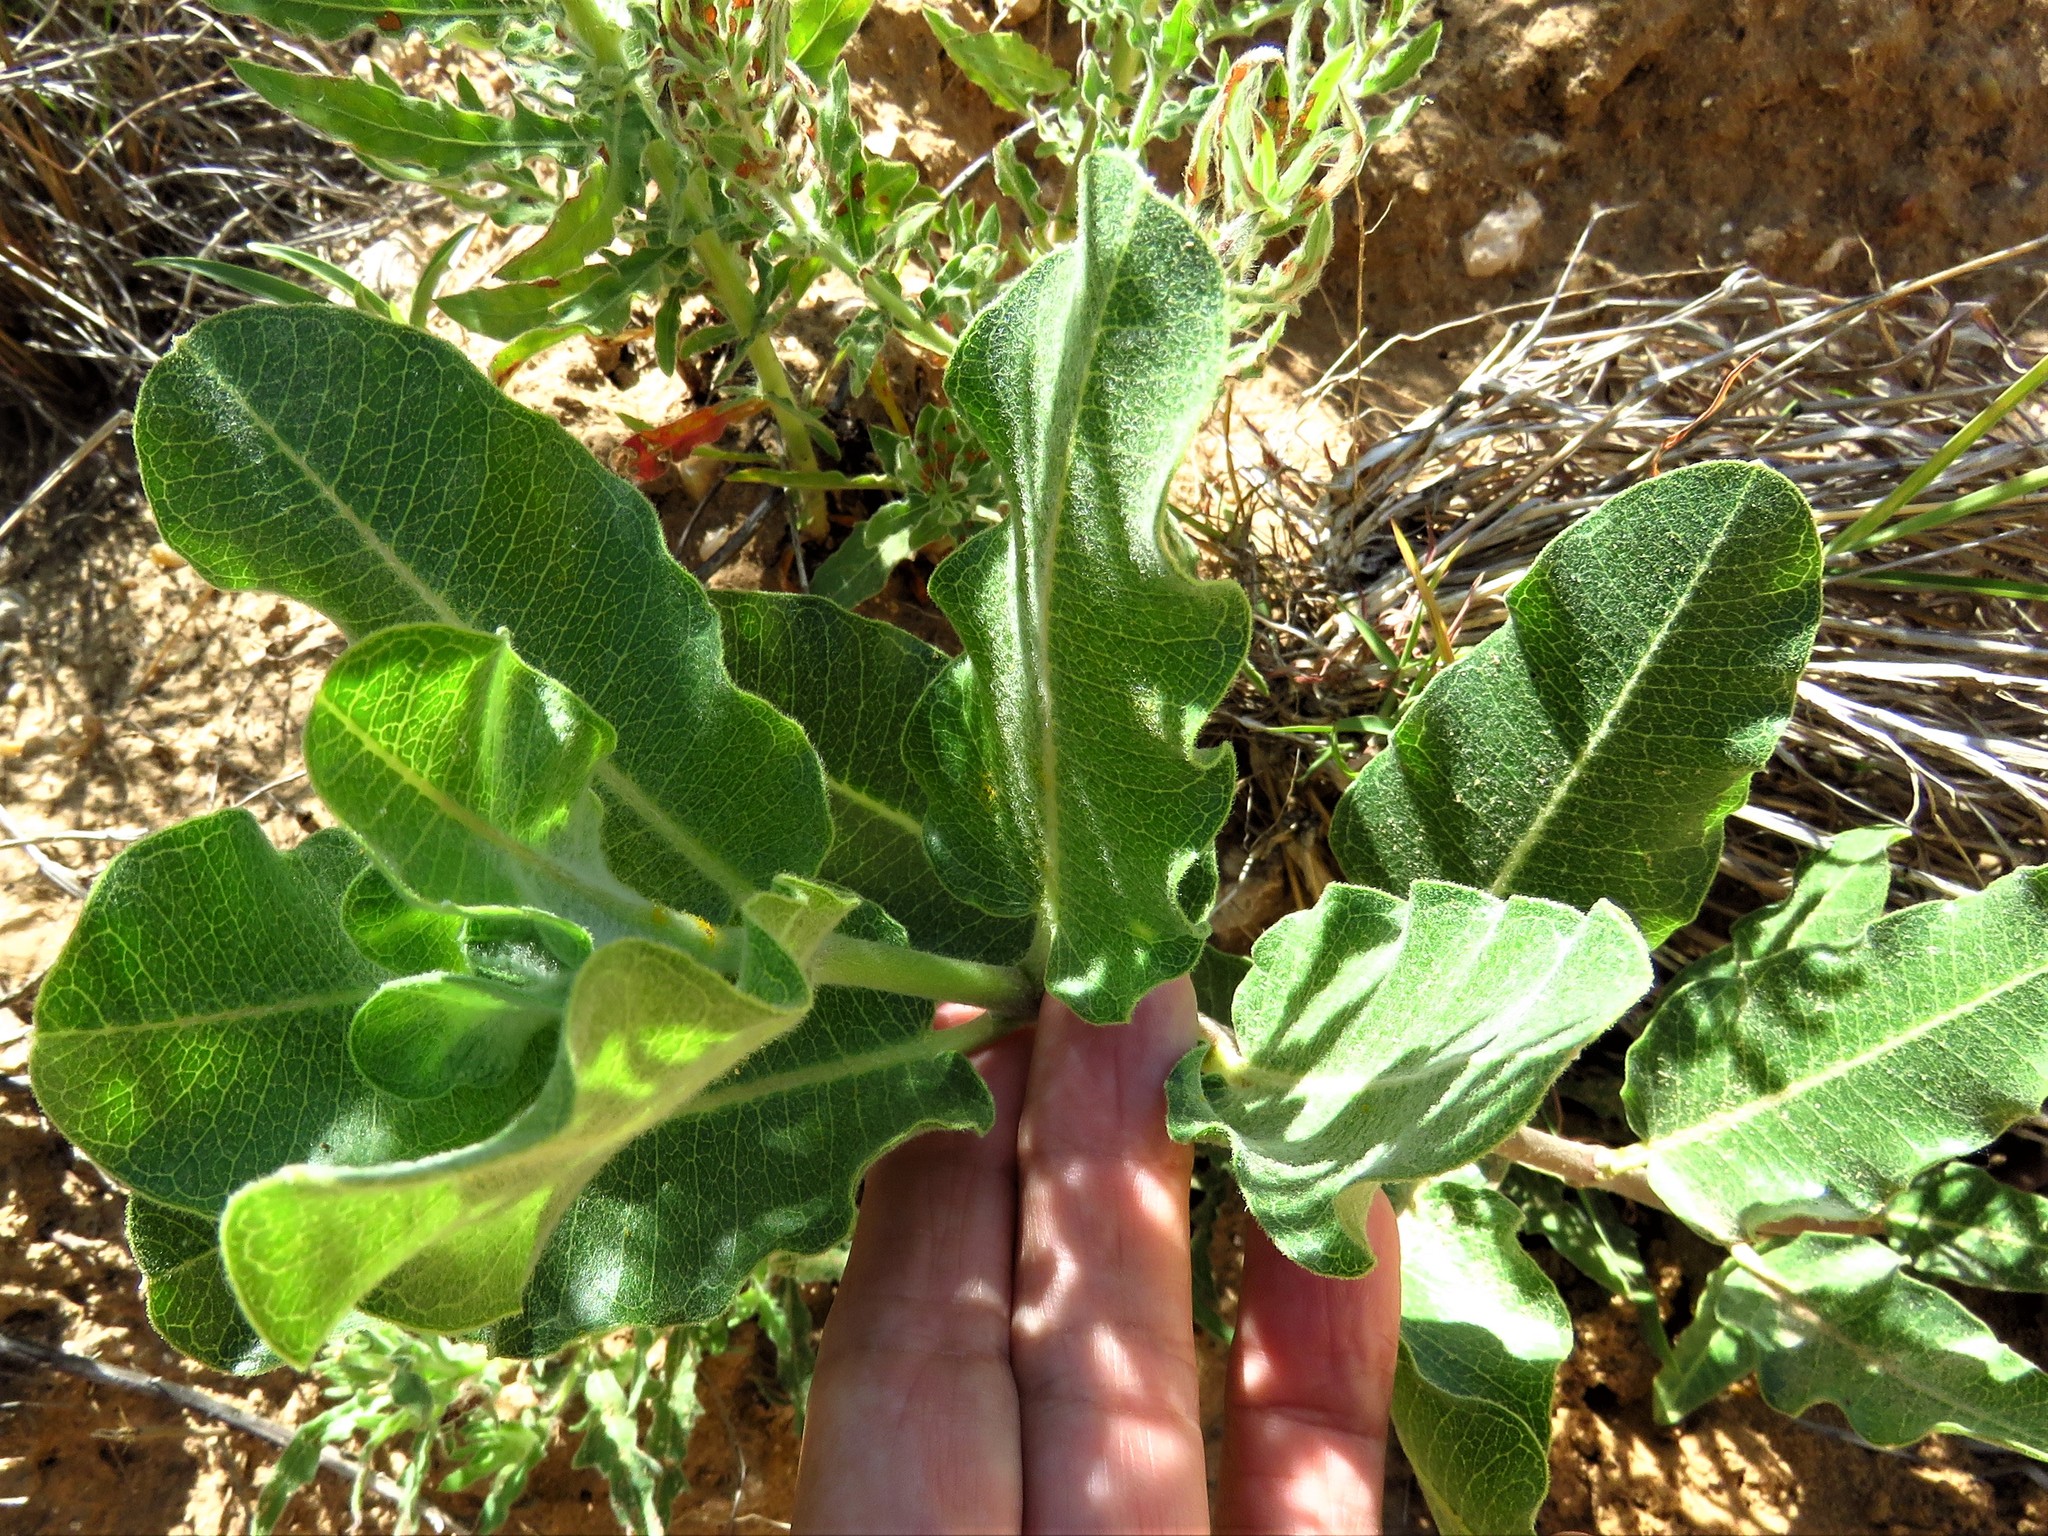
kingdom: Plantae
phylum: Tracheophyta
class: Magnoliopsida
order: Gentianales
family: Apocynaceae
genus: Asclepias
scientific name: Asclepias arenaria
